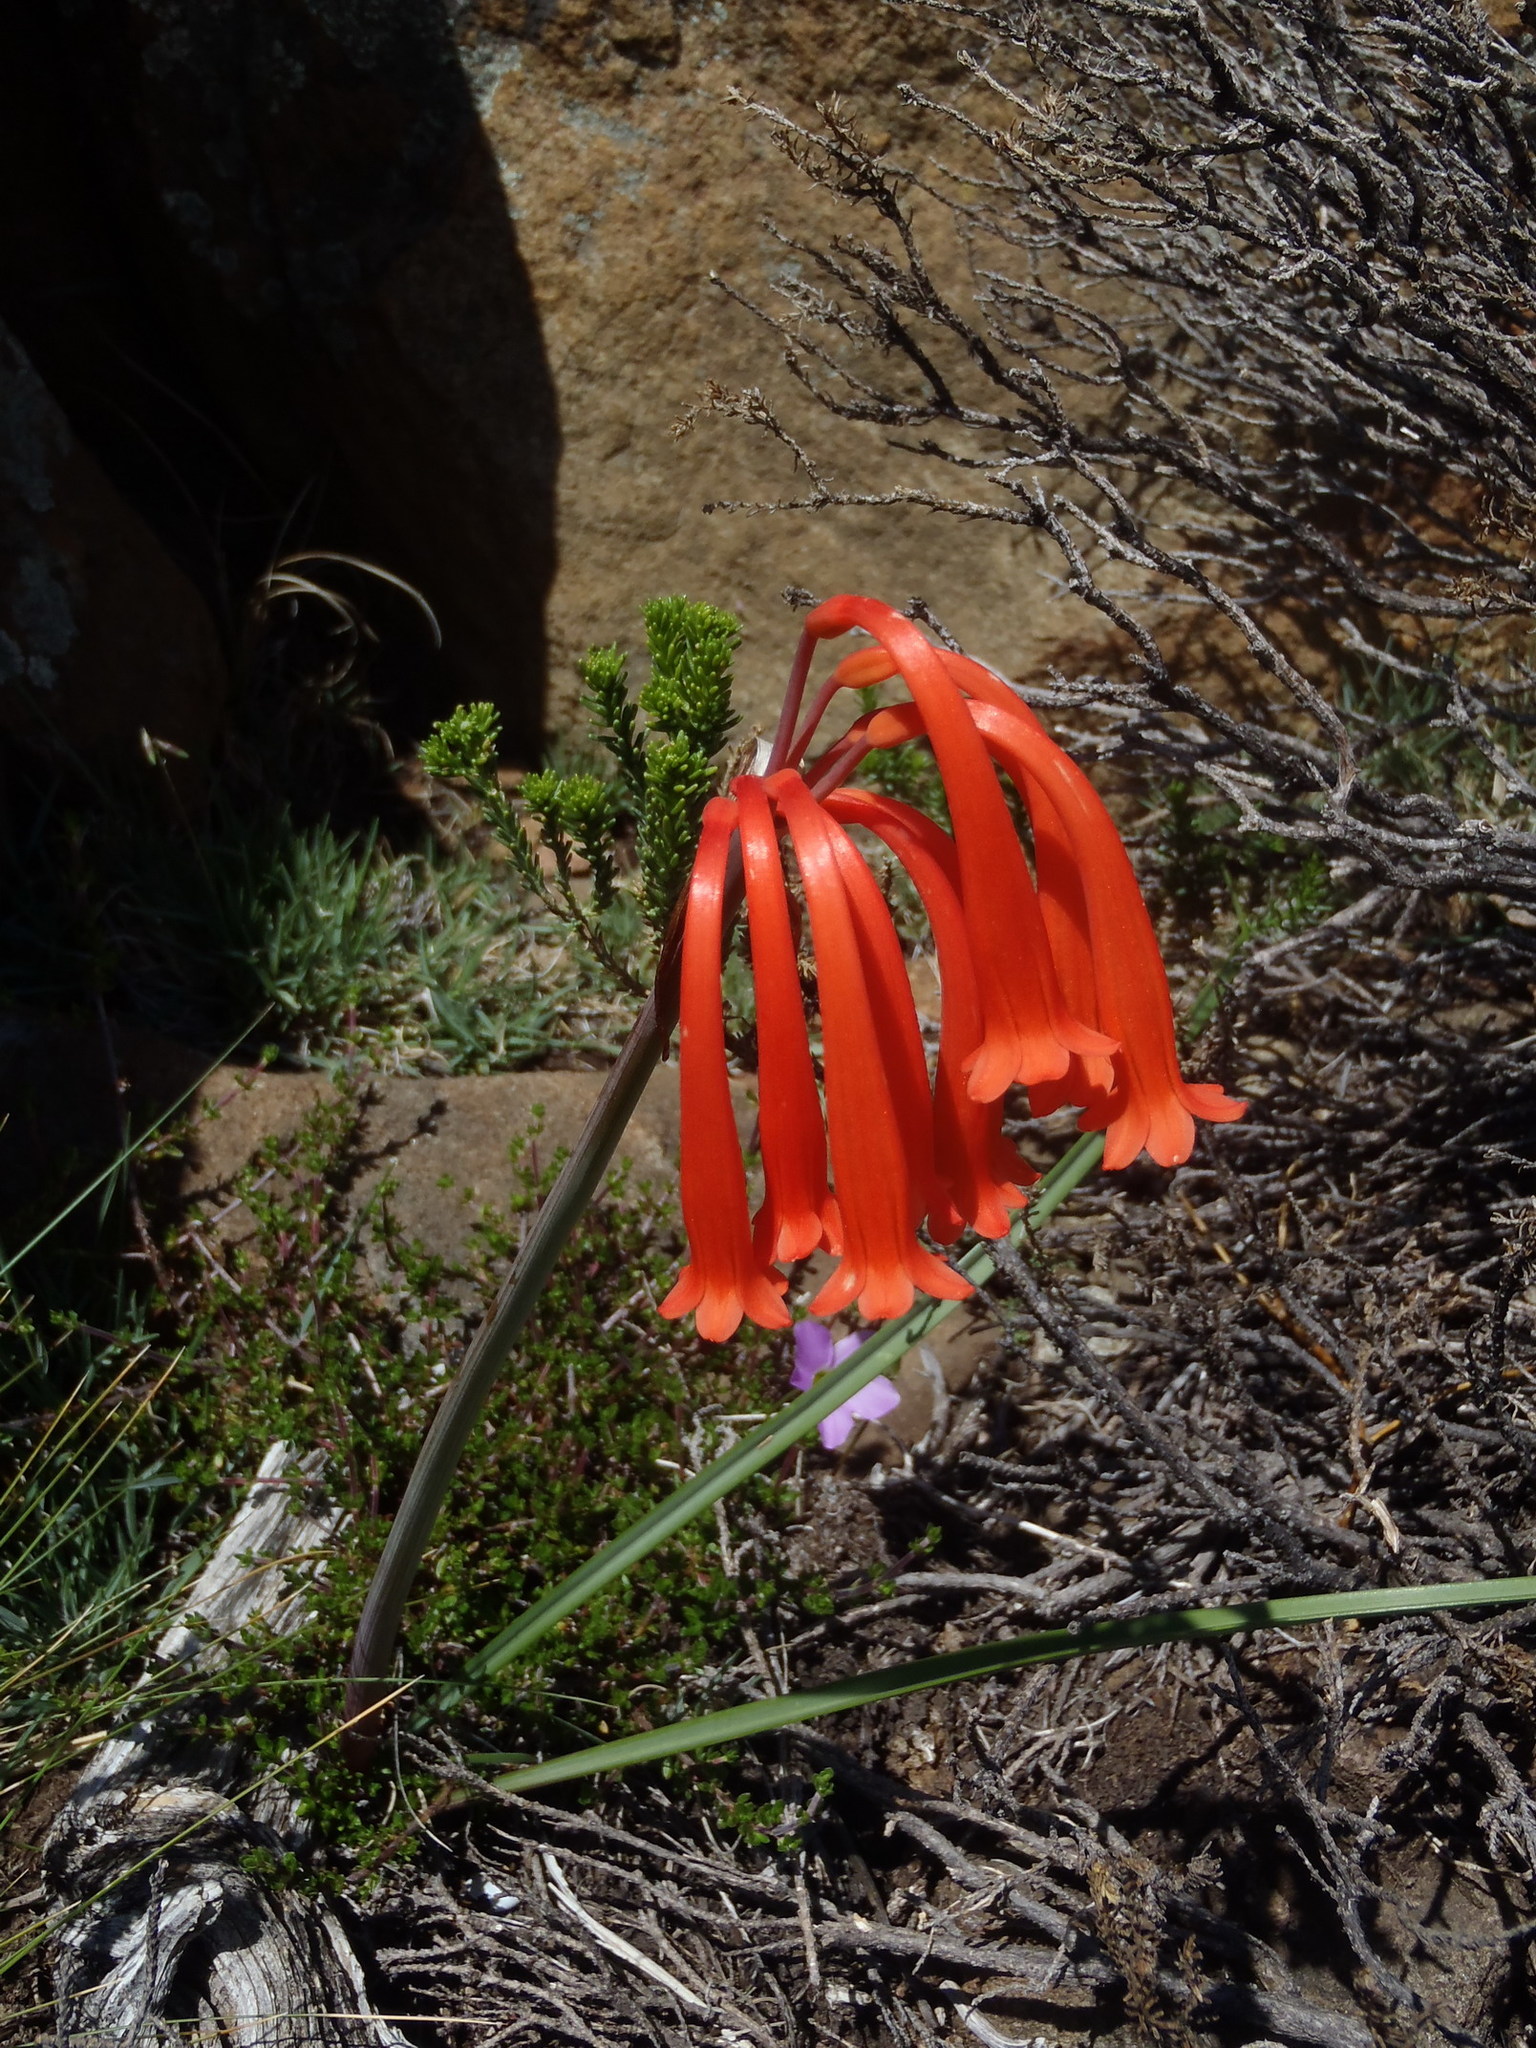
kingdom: Plantae
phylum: Tracheophyta
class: Liliopsida
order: Asparagales
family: Amaryllidaceae
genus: Cyrtanthus
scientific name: Cyrtanthus macowanii
